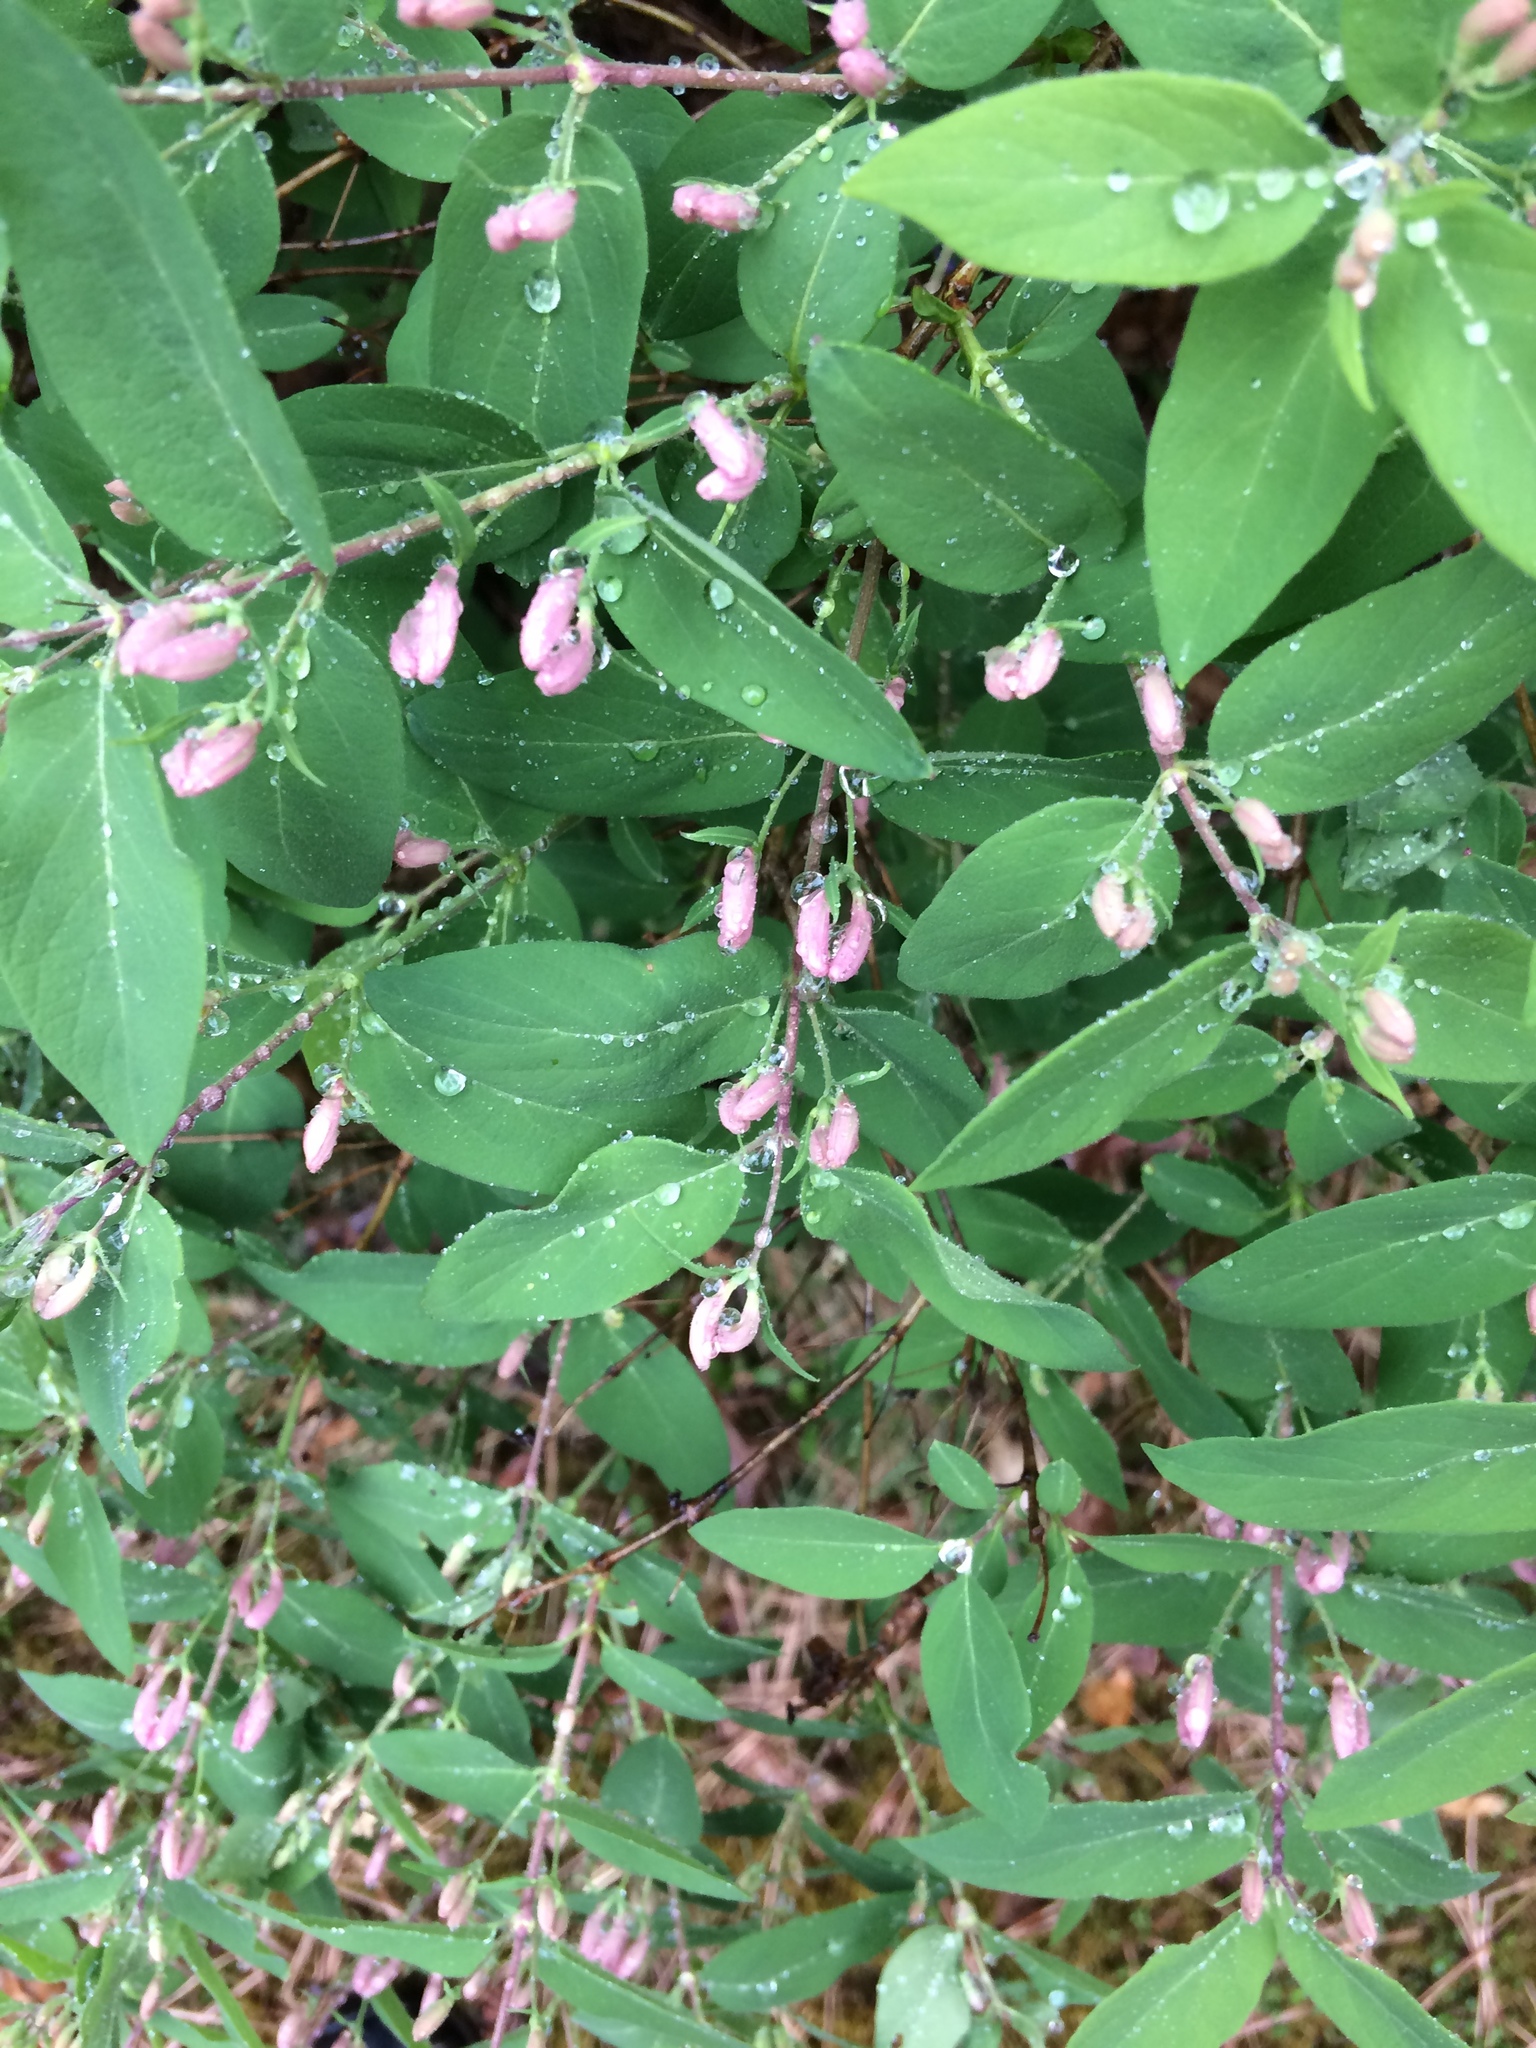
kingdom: Plantae
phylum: Tracheophyta
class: Magnoliopsida
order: Dipsacales
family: Caprifoliaceae
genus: Lonicera
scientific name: Lonicera tatarica
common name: Tatarian honeysuckle
